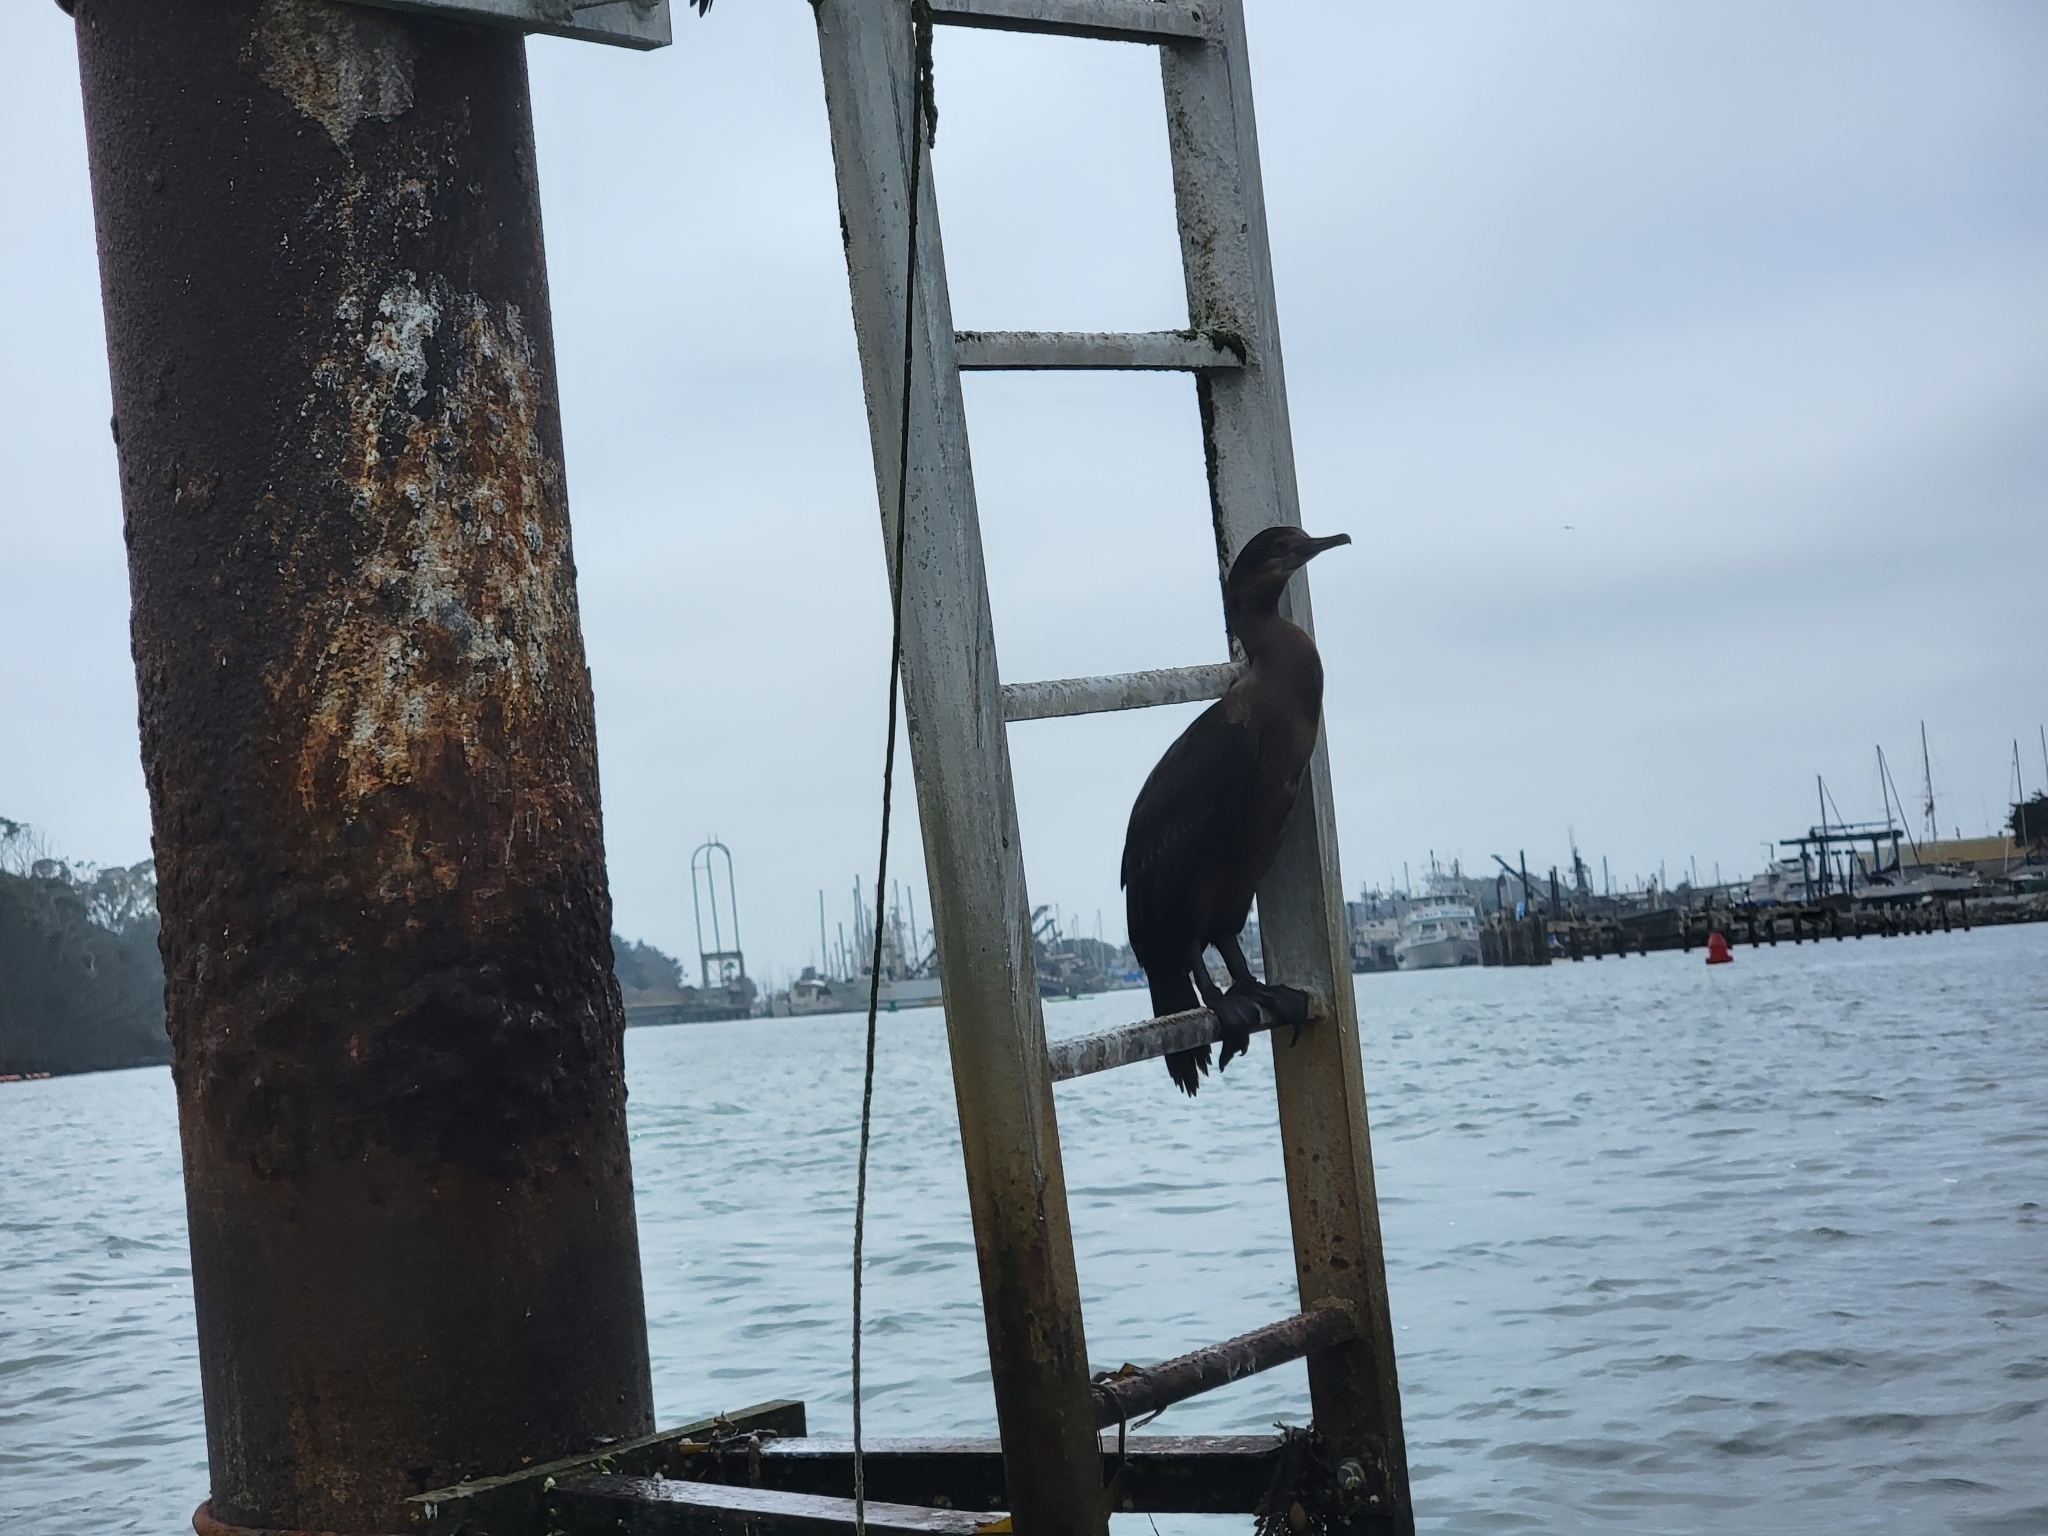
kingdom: Animalia
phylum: Chordata
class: Aves
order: Suliformes
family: Phalacrocoracidae
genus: Urile
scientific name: Urile penicillatus
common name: Brandt's cormorant
